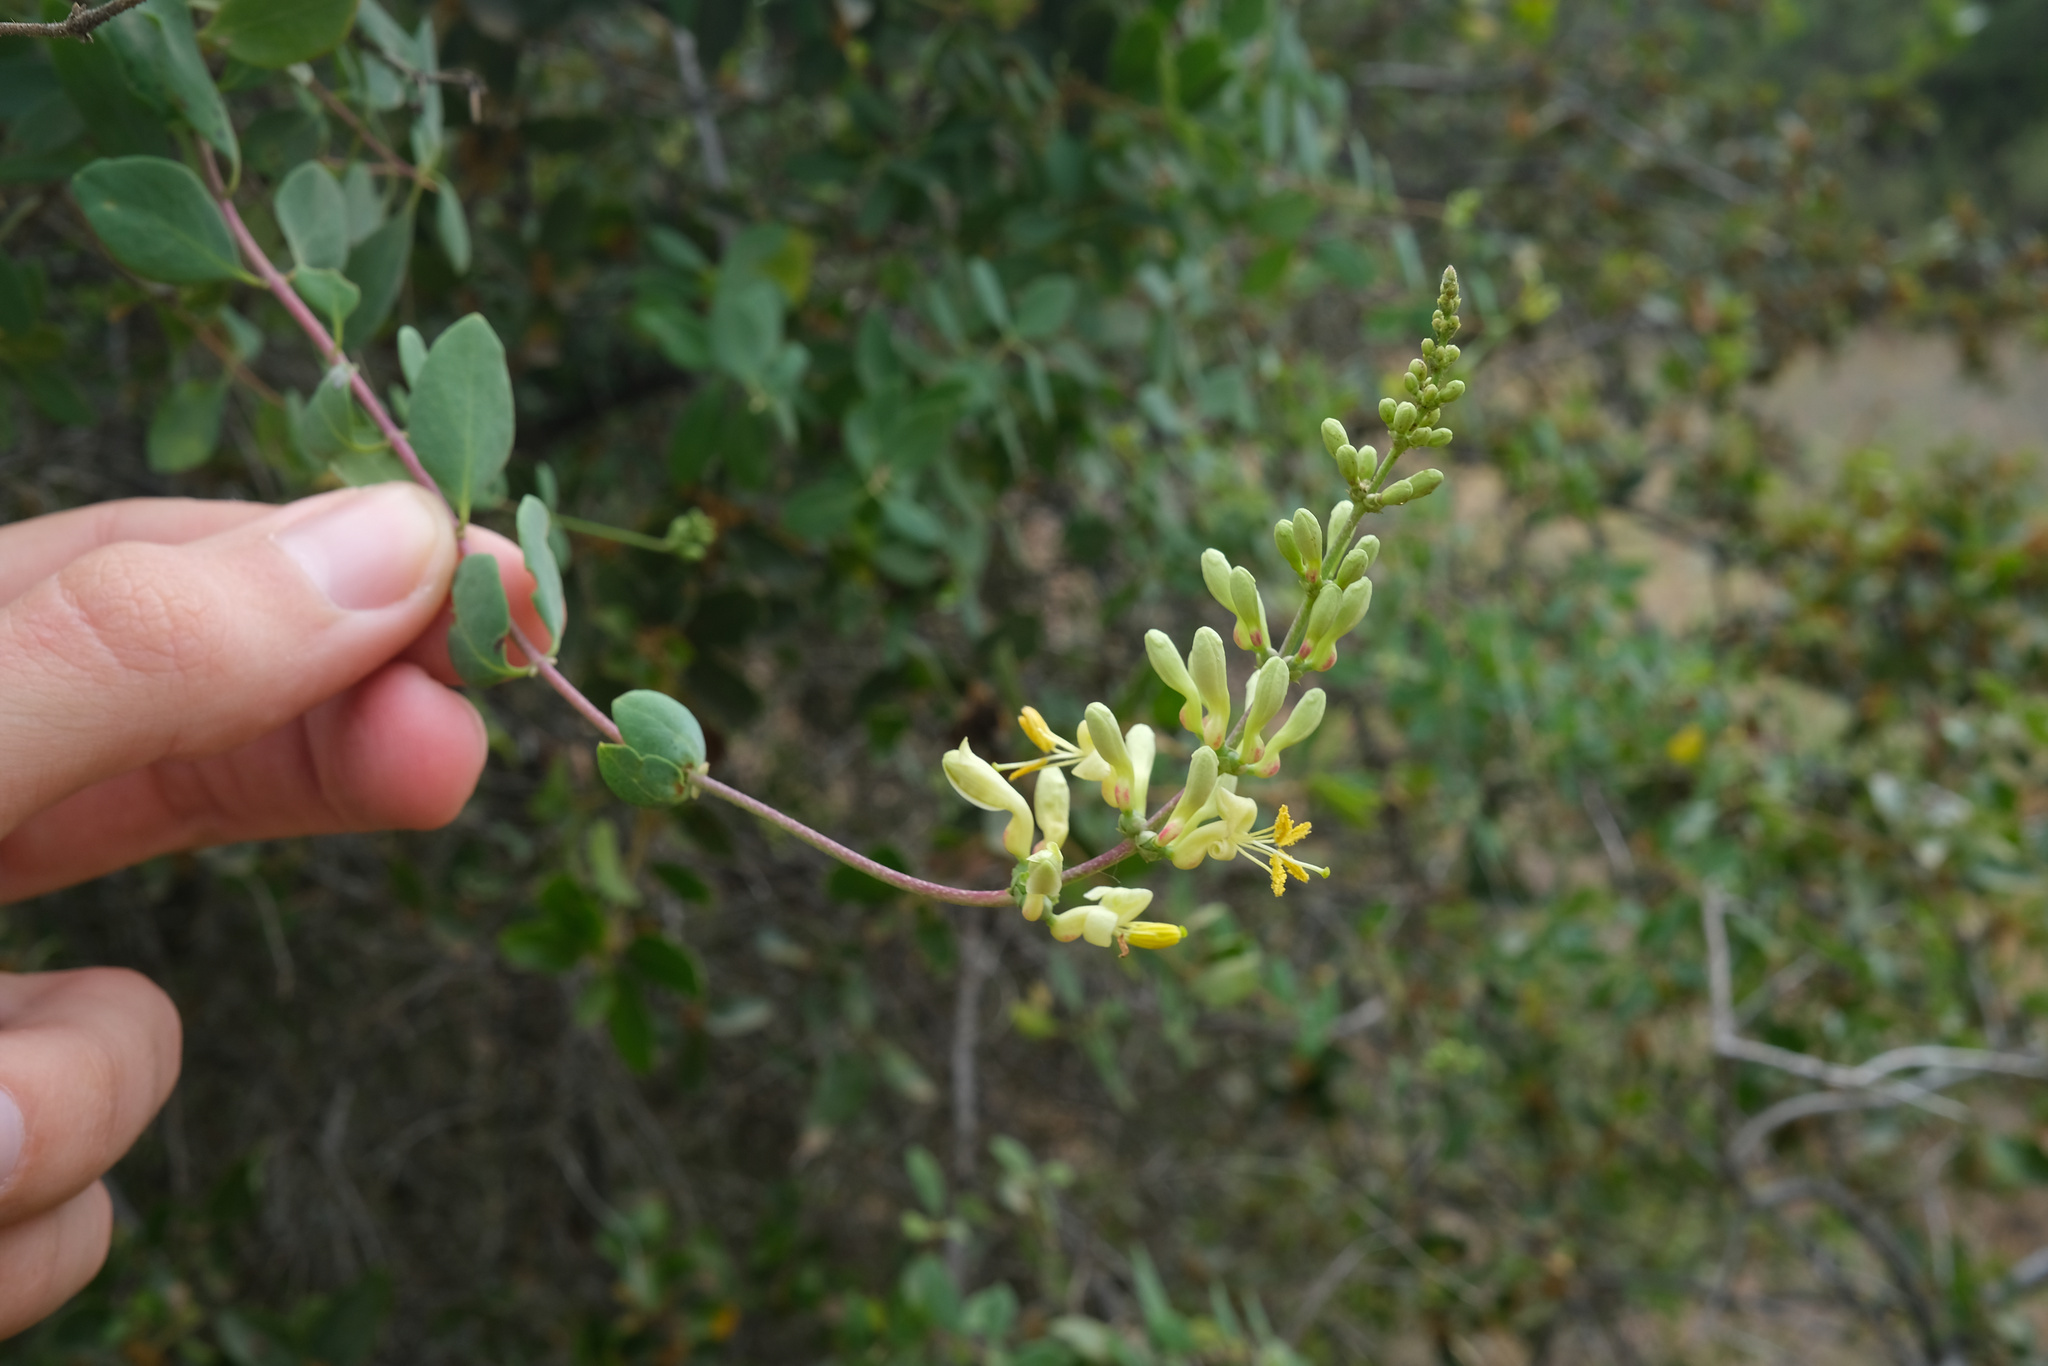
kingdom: Plantae
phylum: Tracheophyta
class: Magnoliopsida
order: Dipsacales
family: Caprifoliaceae
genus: Lonicera
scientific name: Lonicera subspicata
